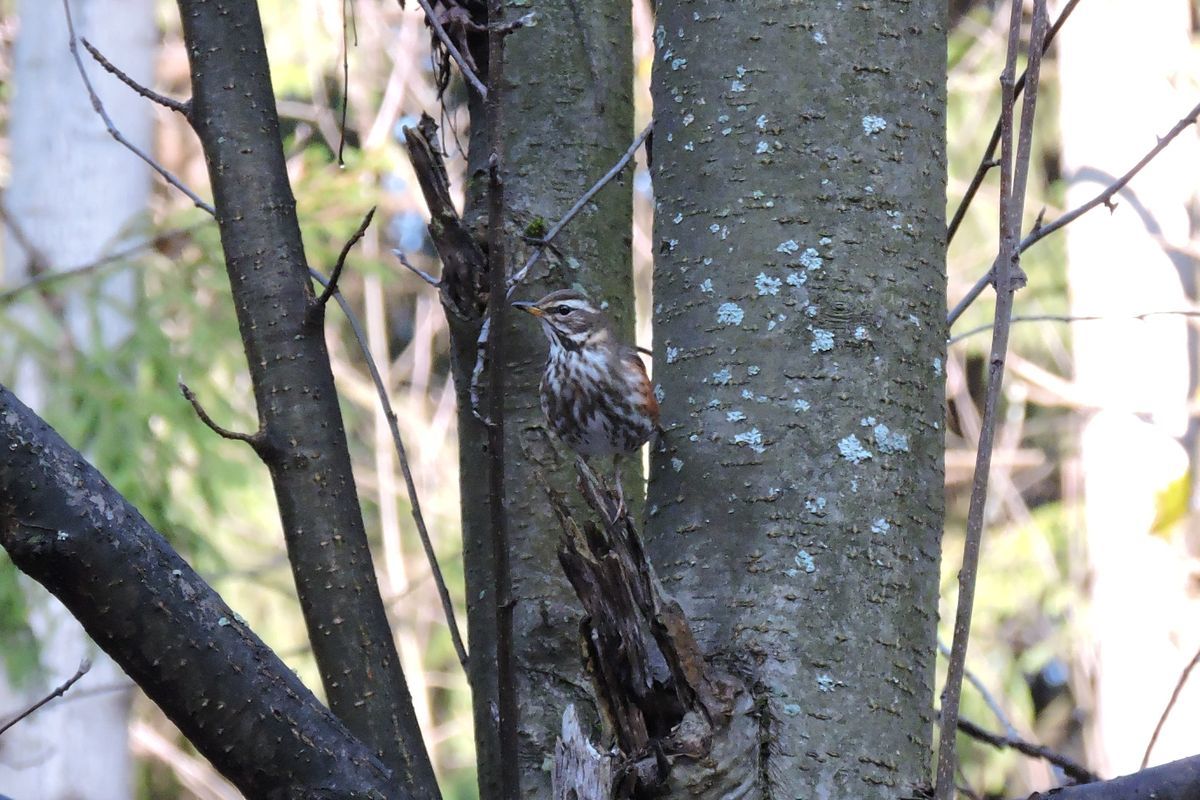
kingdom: Animalia
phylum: Chordata
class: Aves
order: Passeriformes
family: Turdidae
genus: Turdus
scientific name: Turdus iliacus
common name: Redwing
